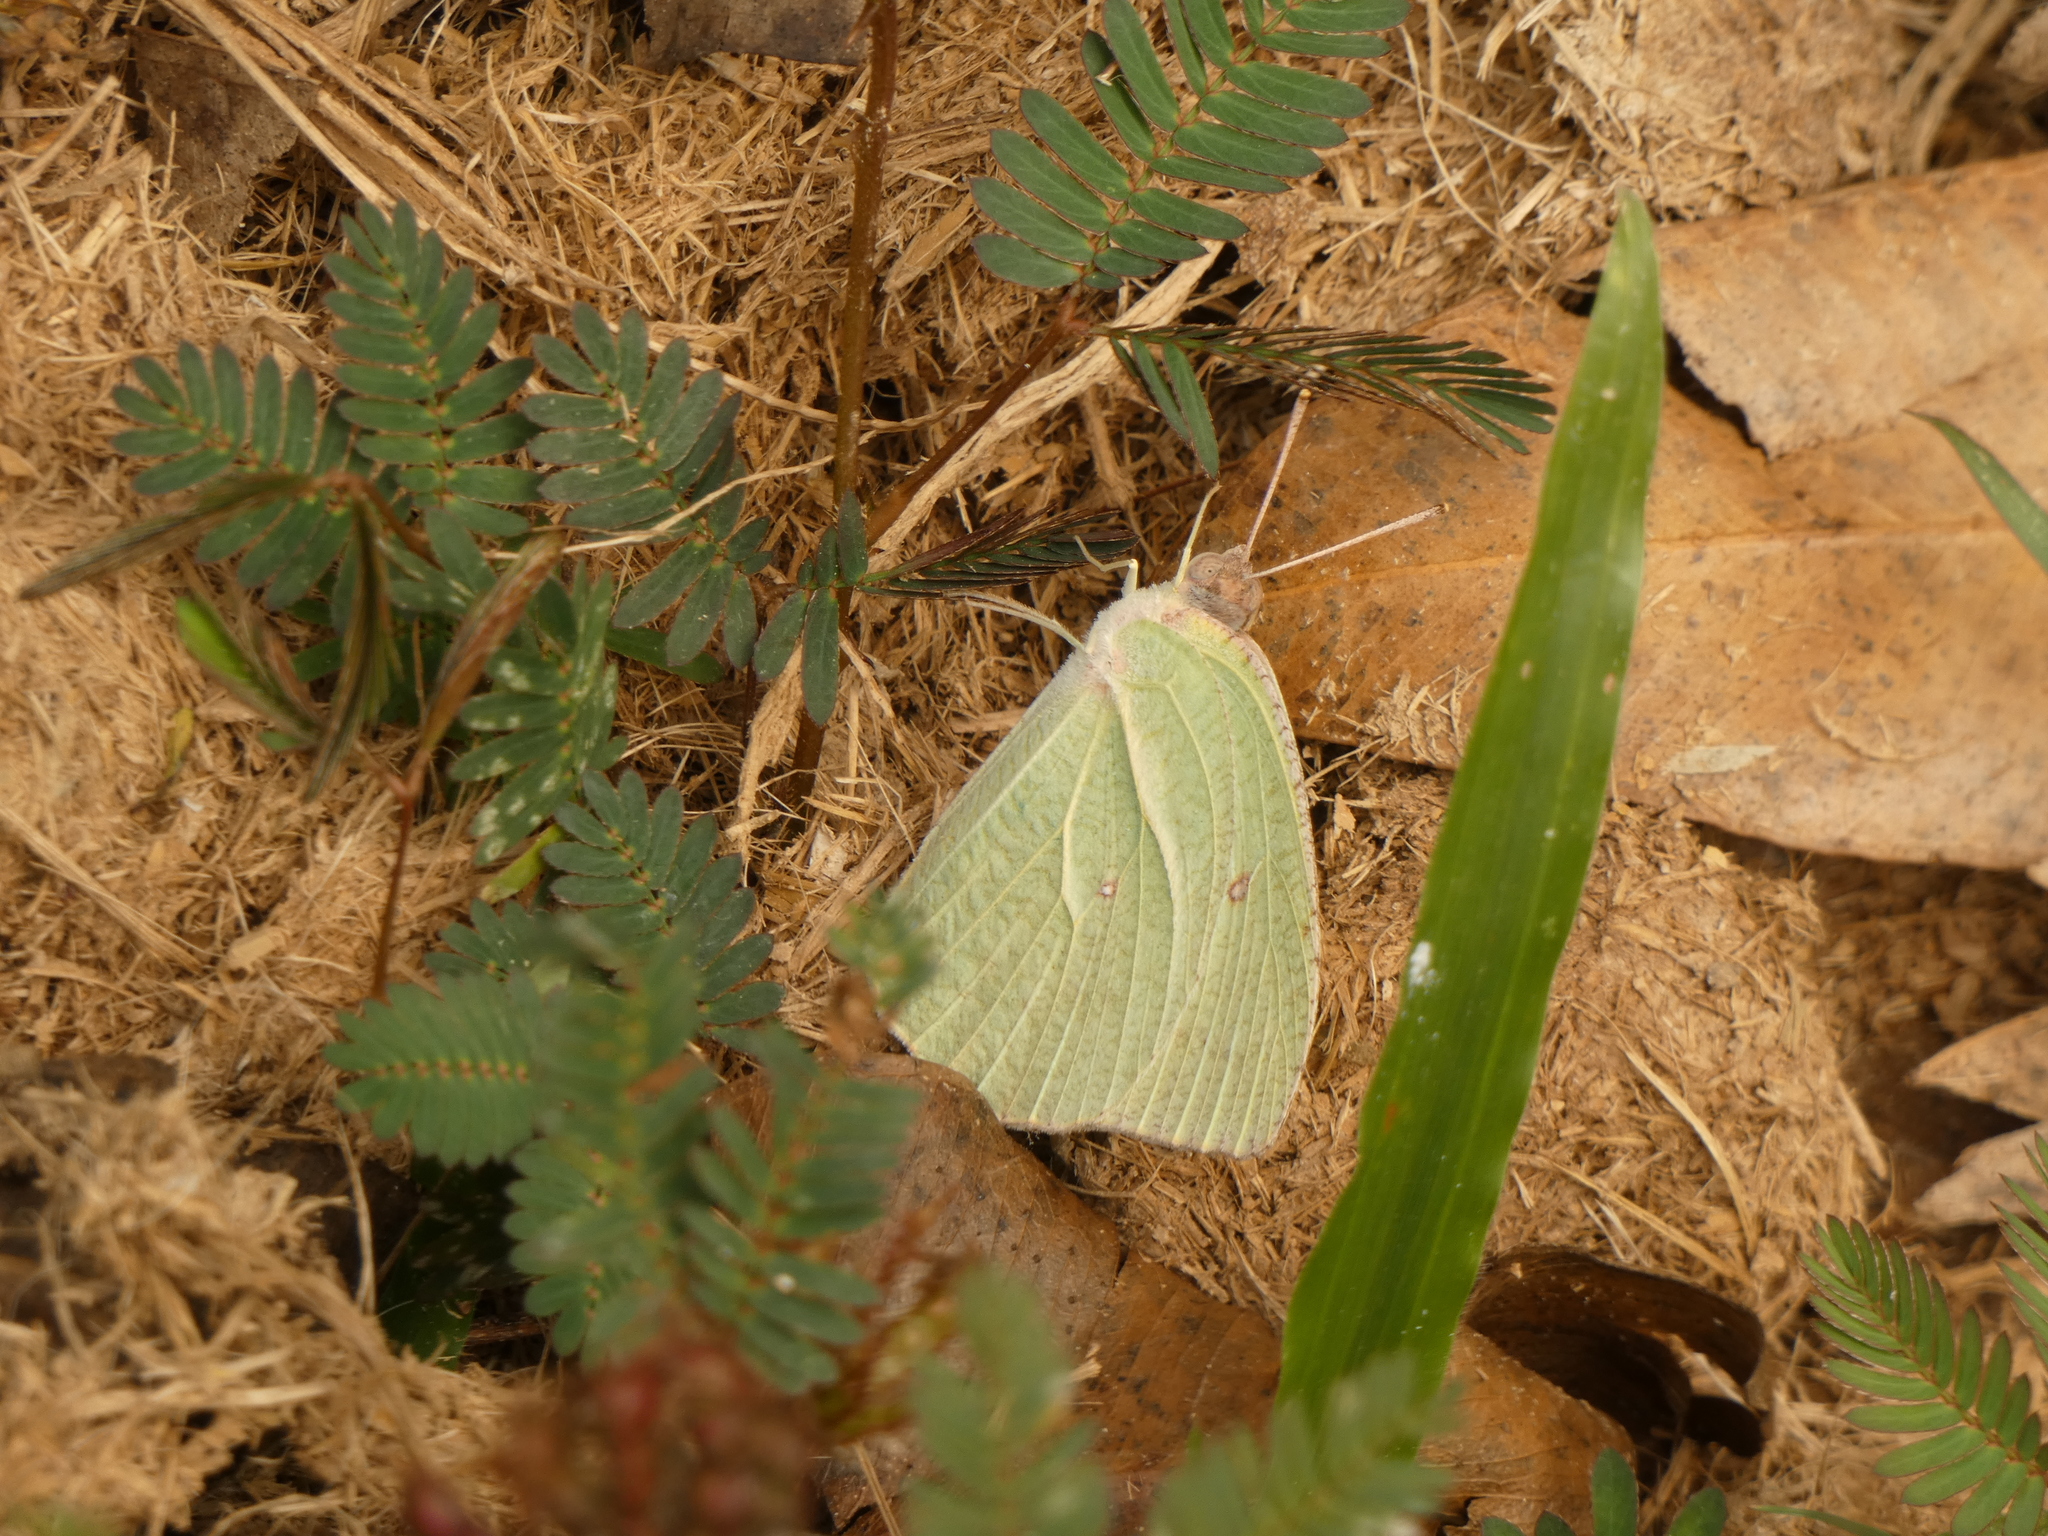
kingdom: Animalia
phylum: Arthropoda
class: Insecta
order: Lepidoptera
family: Pieridae
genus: Catopsilia
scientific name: Catopsilia pyranthe
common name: Mottled emigrant
